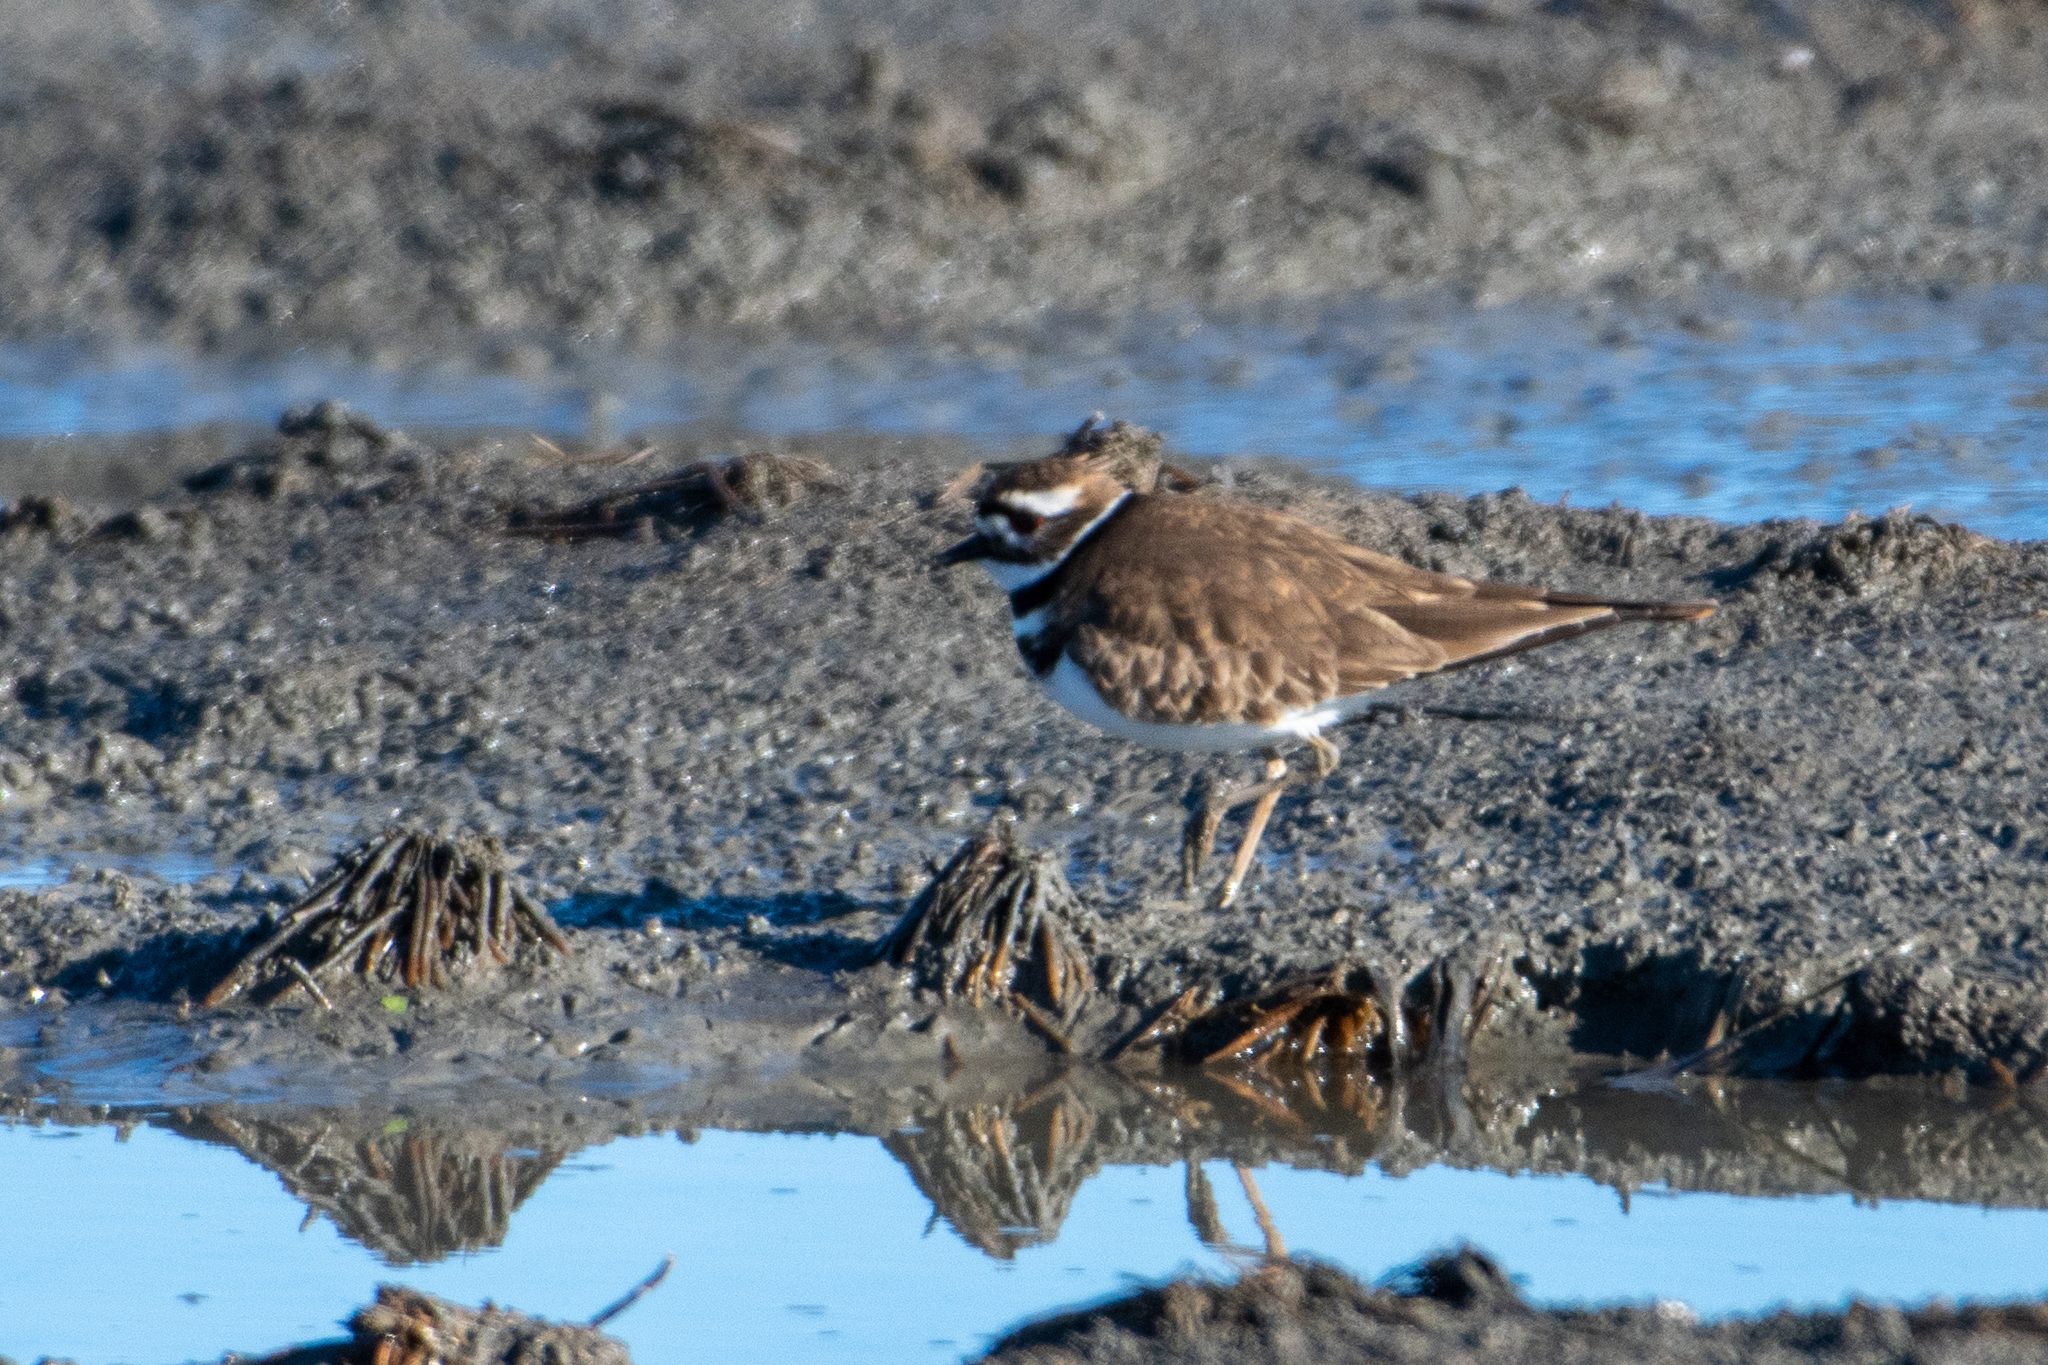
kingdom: Animalia
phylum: Chordata
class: Aves
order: Charadriiformes
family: Charadriidae
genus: Charadrius
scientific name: Charadrius vociferus
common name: Killdeer
